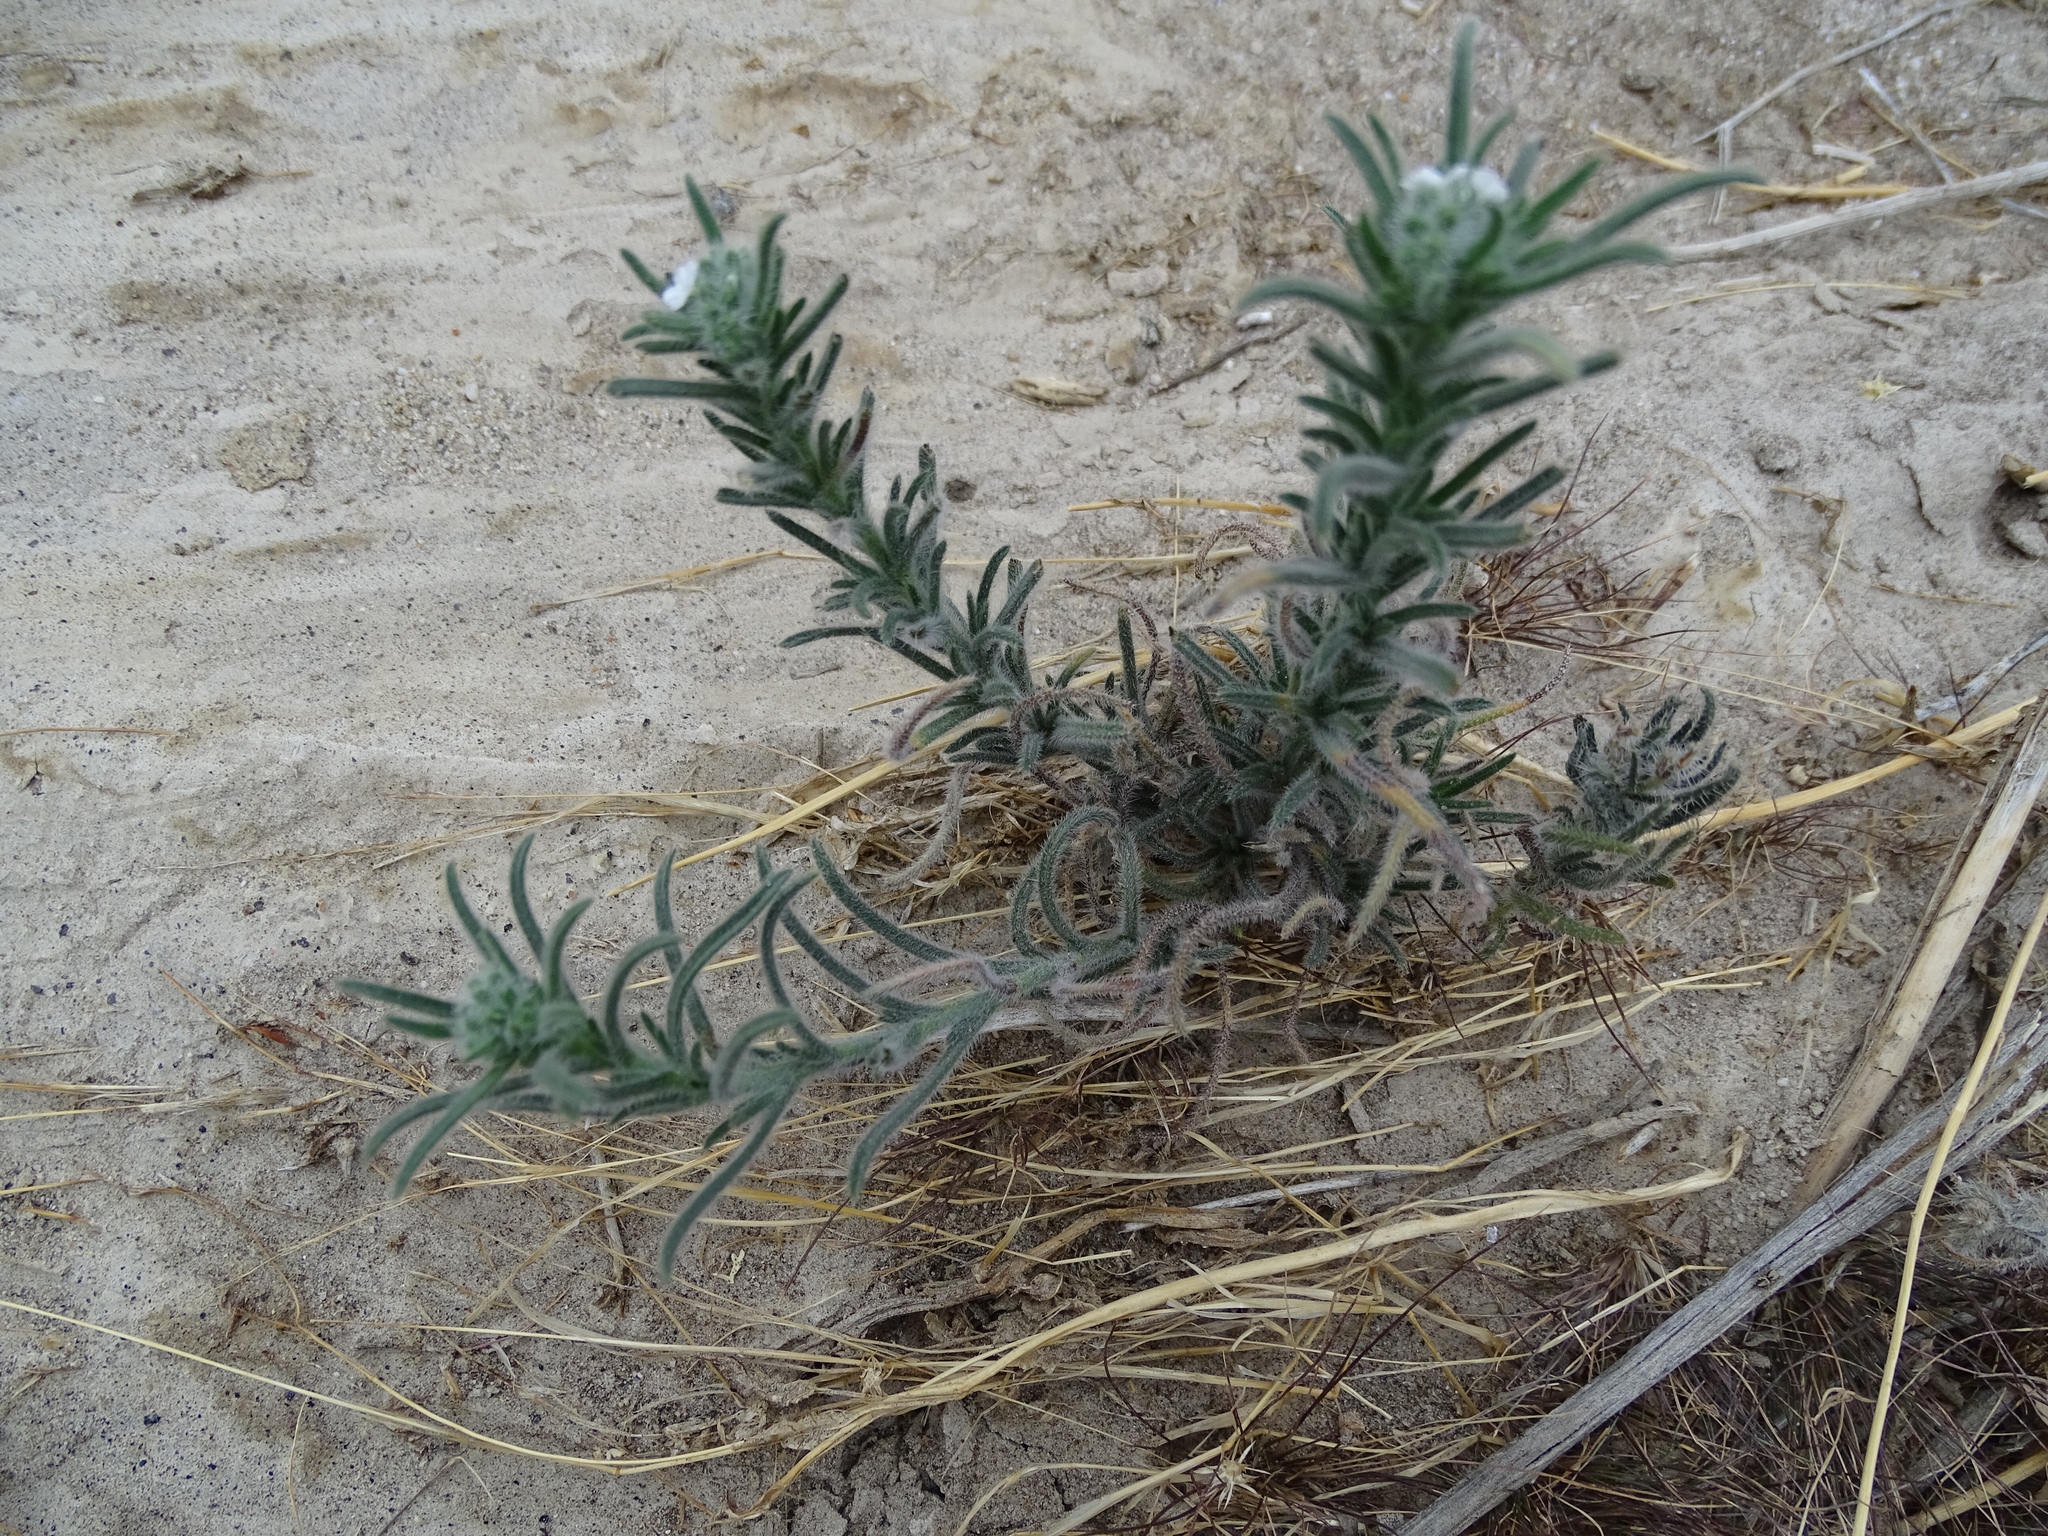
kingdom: Plantae
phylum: Tracheophyta
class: Magnoliopsida
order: Boraginales
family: Boraginaceae
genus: Johnstonella
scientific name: Johnstonella angustifolia
